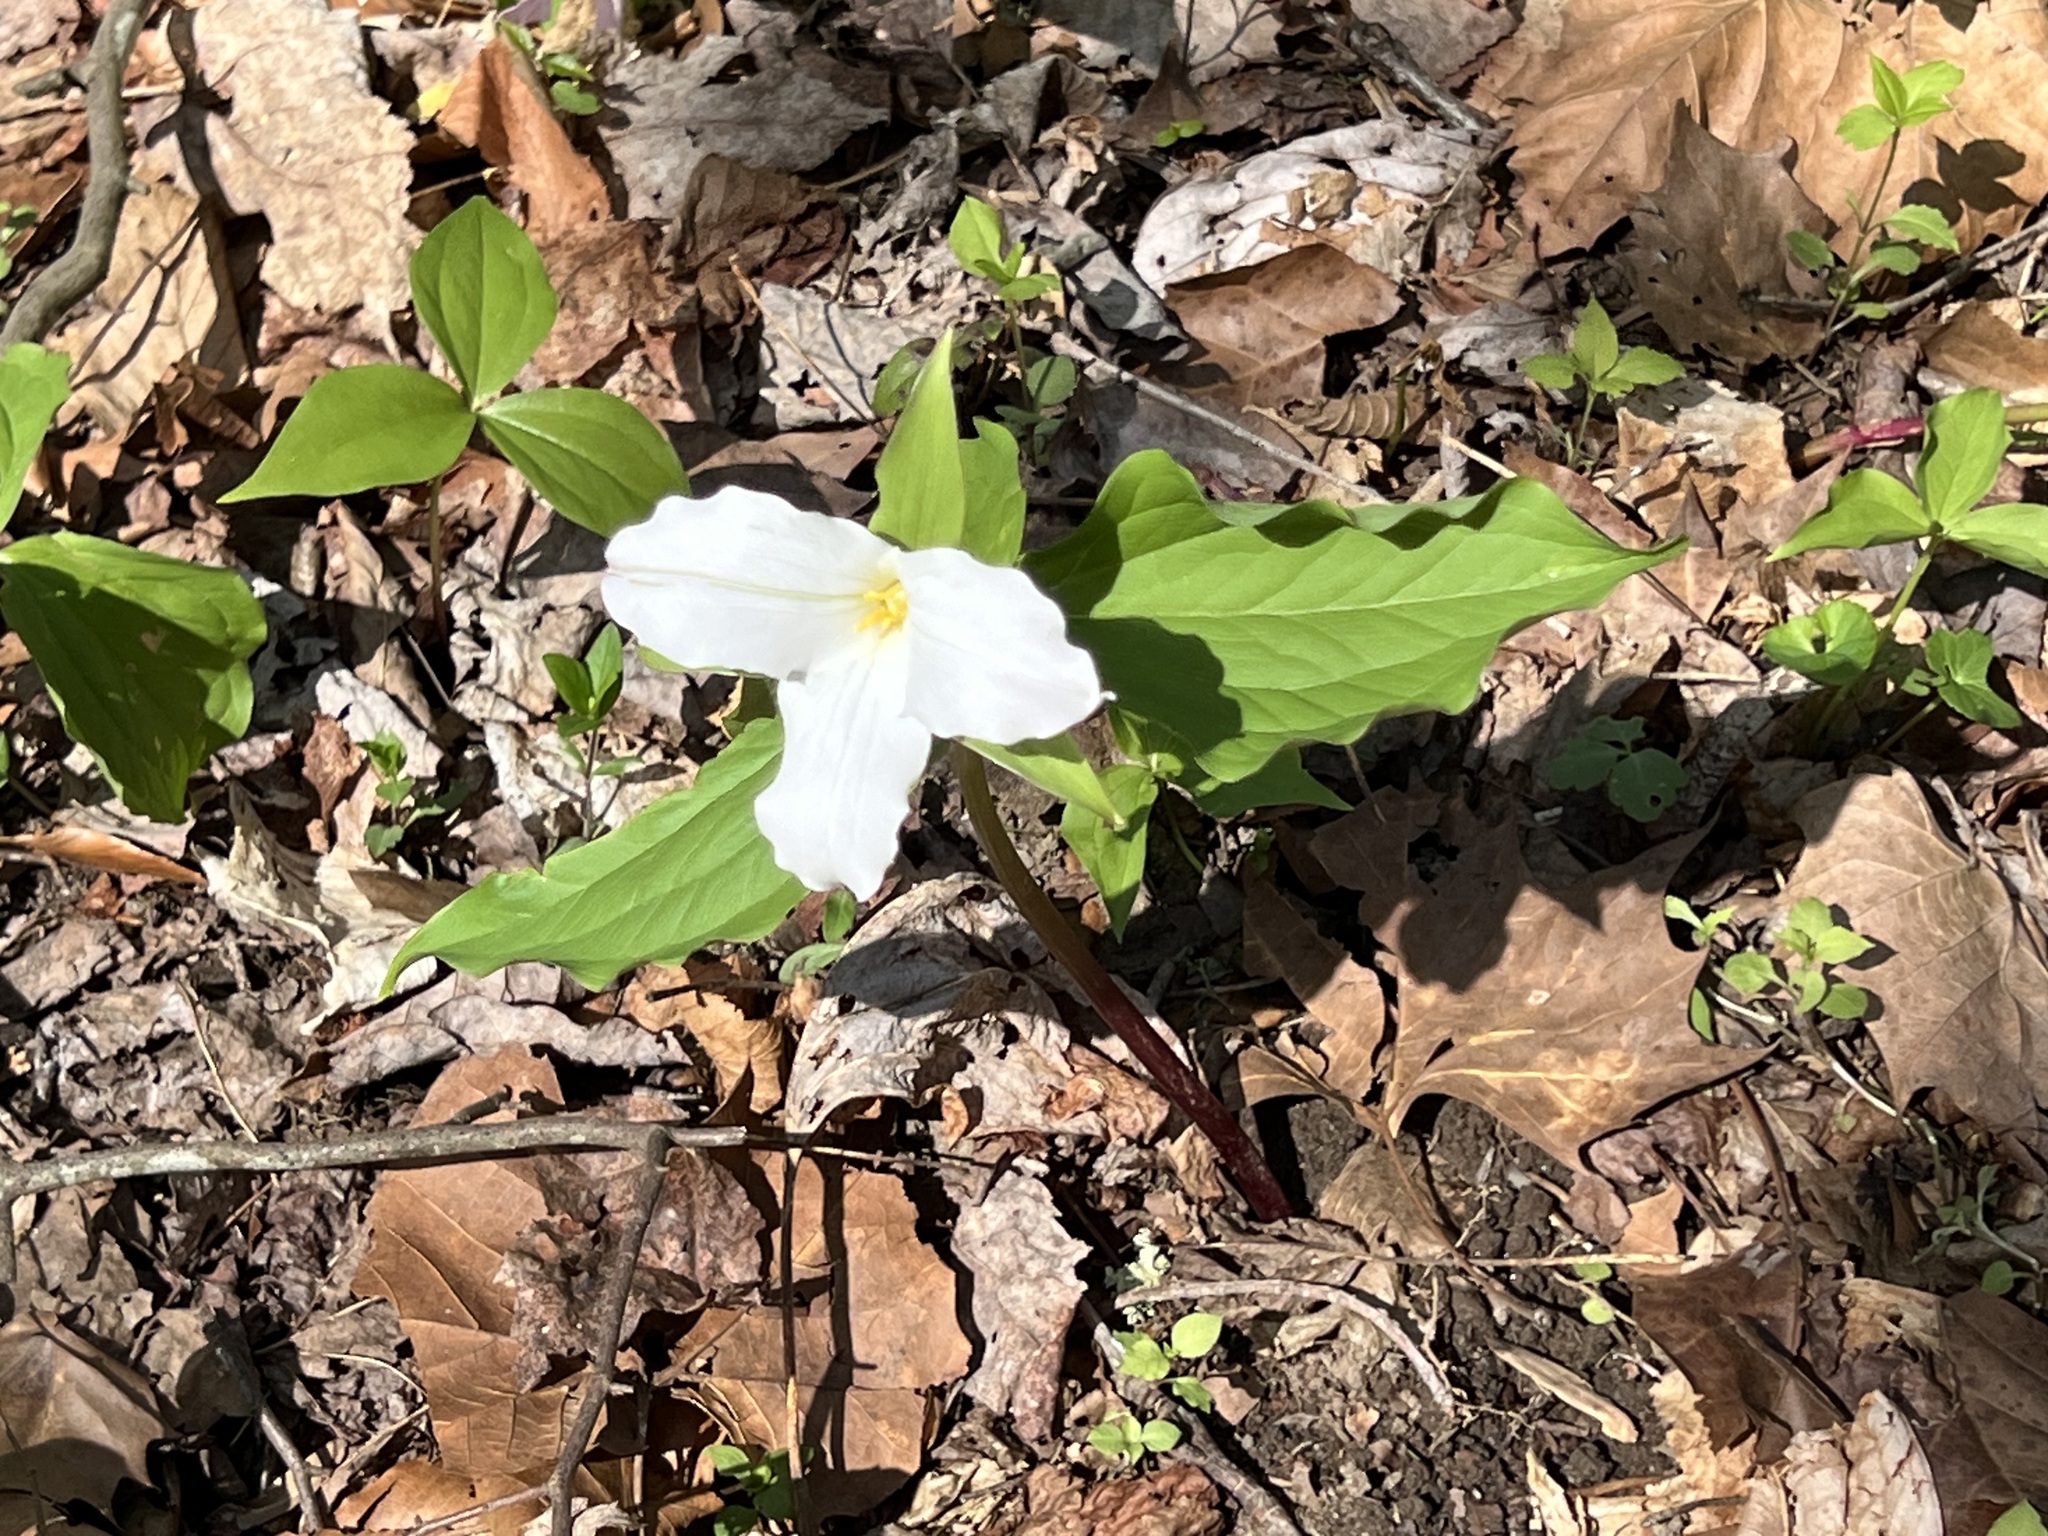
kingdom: Plantae
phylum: Tracheophyta
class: Liliopsida
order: Liliales
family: Melanthiaceae
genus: Trillium
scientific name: Trillium grandiflorum
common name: Great white trillium
